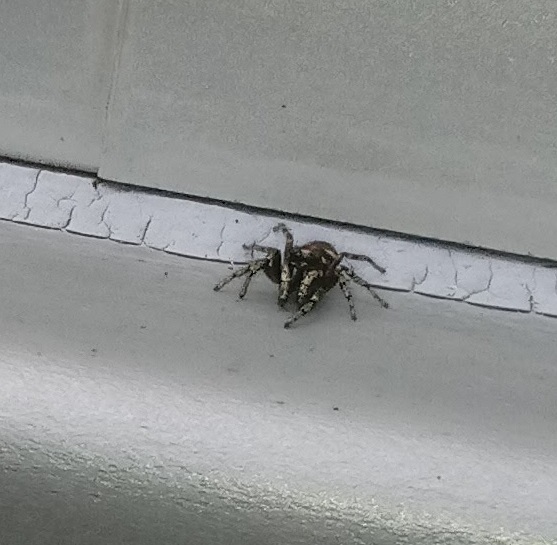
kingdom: Animalia
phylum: Arthropoda
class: Arachnida
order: Araneae
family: Salticidae
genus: Salticus
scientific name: Salticus scenicus
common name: Zebra jumper
